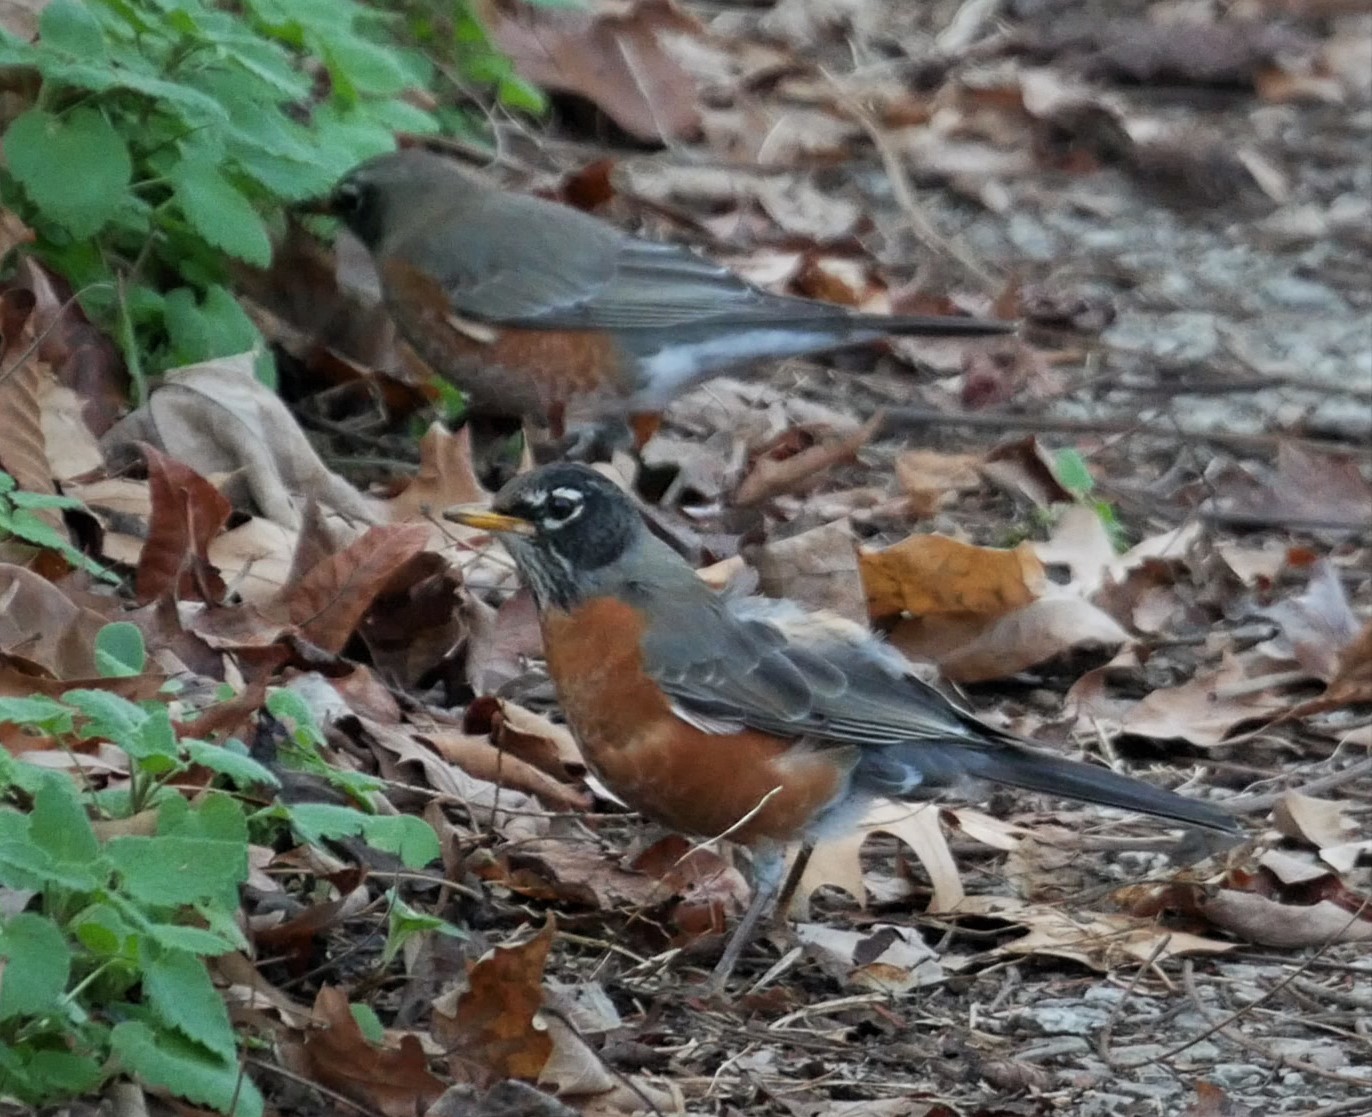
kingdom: Animalia
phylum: Chordata
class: Aves
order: Passeriformes
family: Turdidae
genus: Turdus
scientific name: Turdus migratorius
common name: American robin
